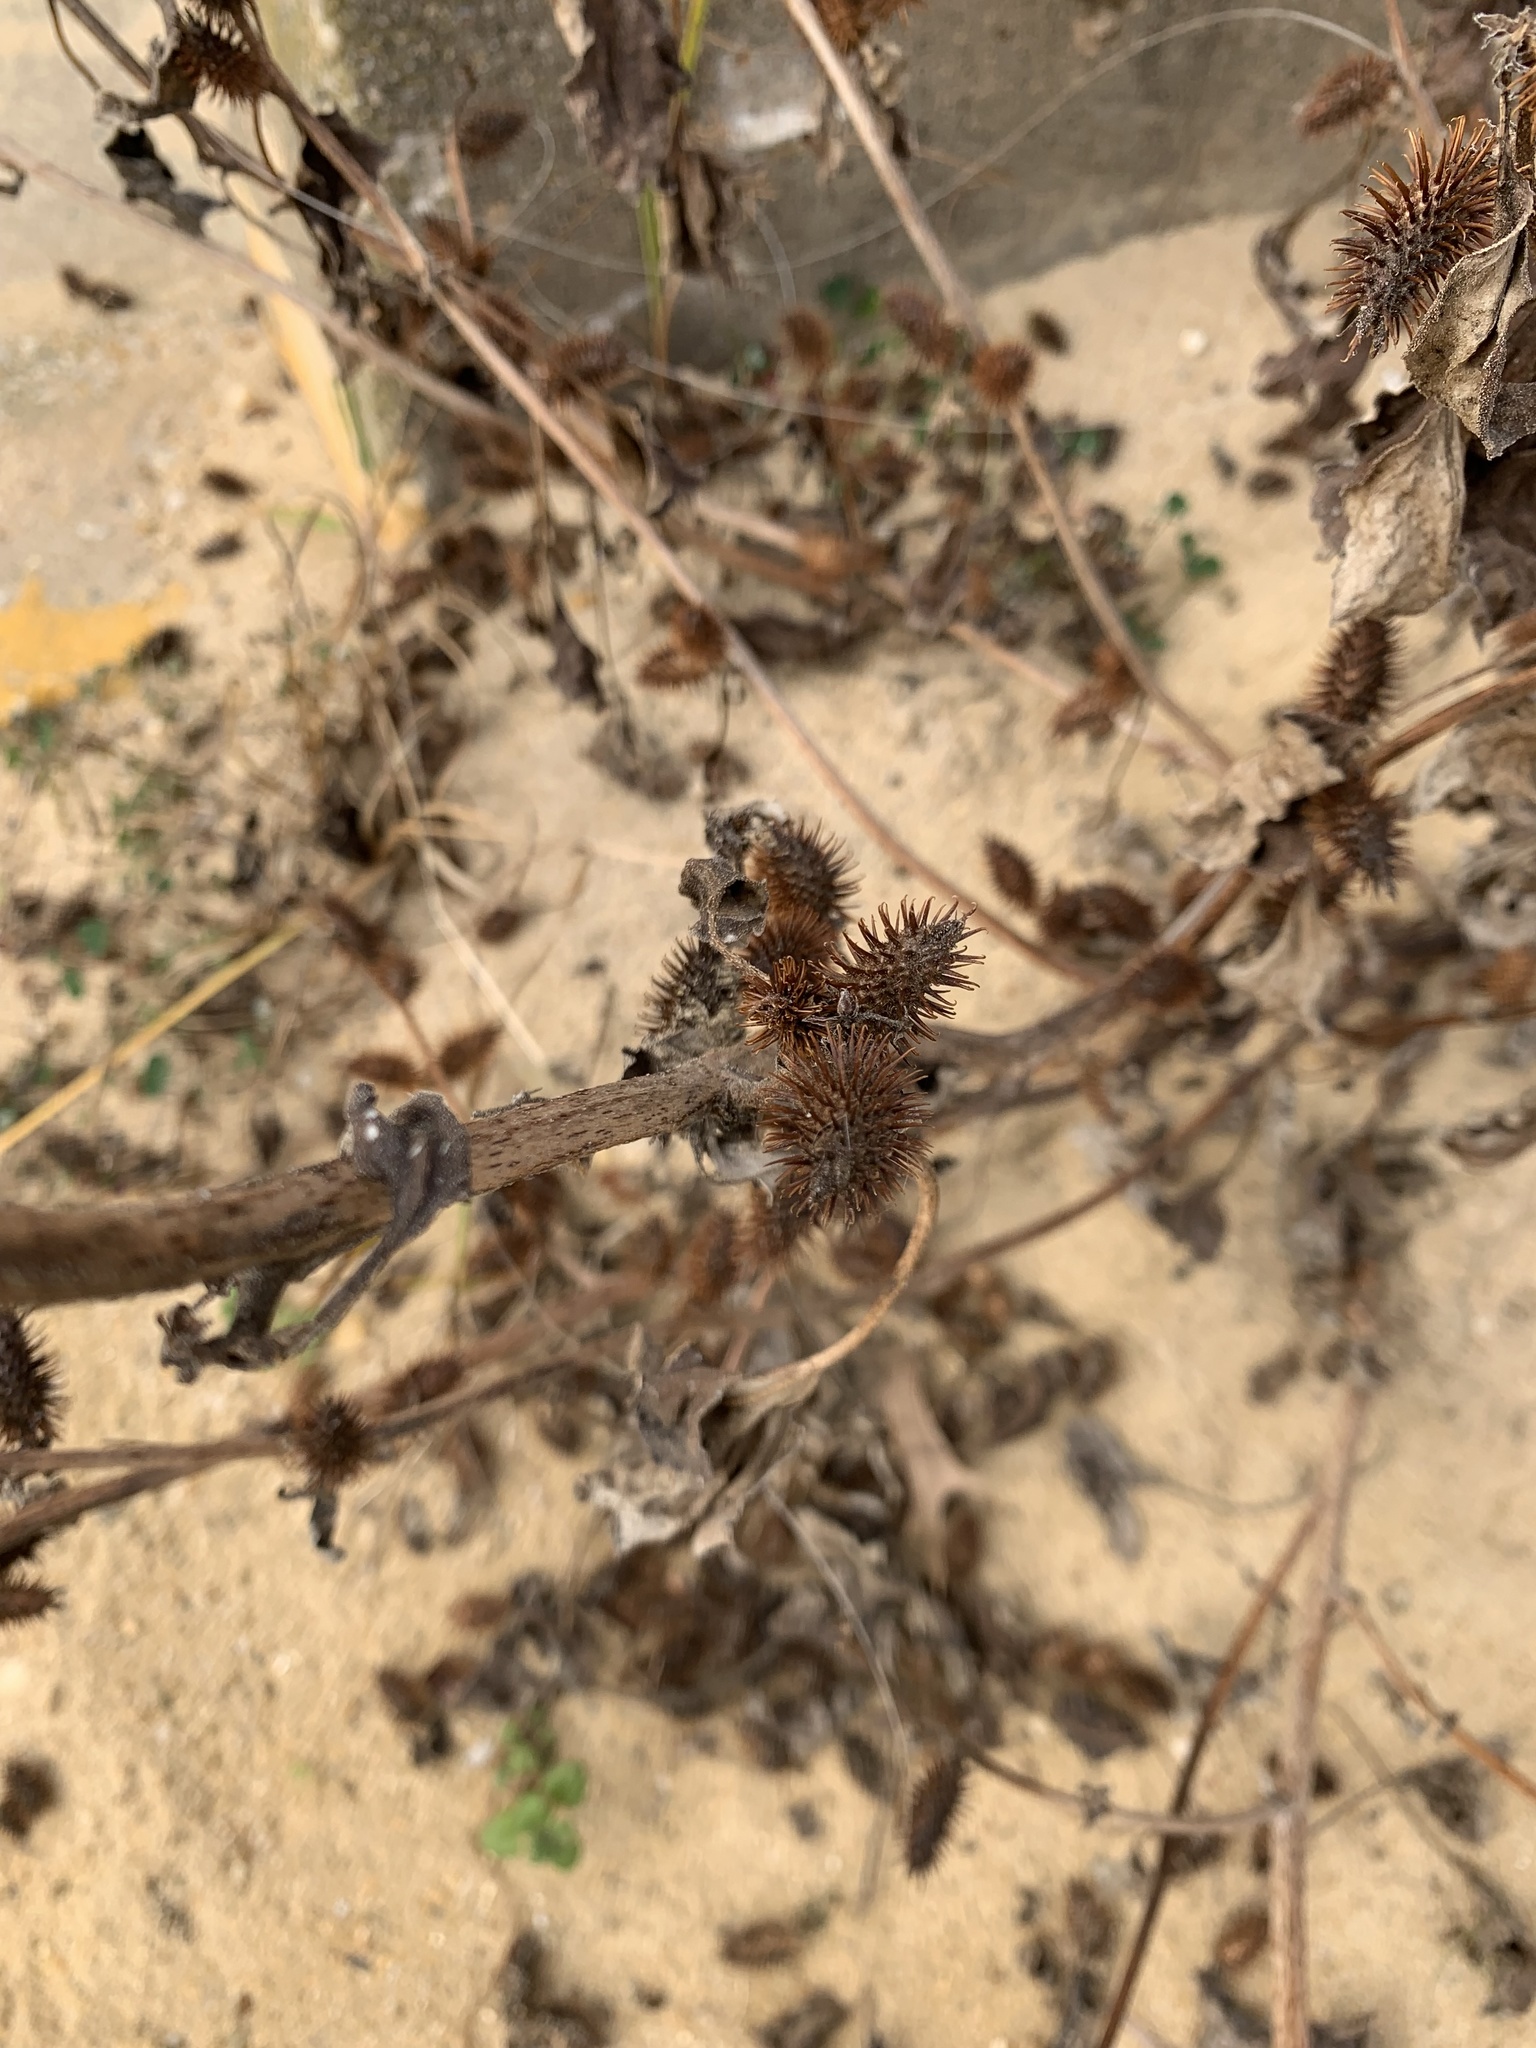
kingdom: Plantae
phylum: Tracheophyta
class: Magnoliopsida
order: Asterales
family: Asteraceae
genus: Xanthium
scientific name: Xanthium strumarium
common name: Rough cocklebur
